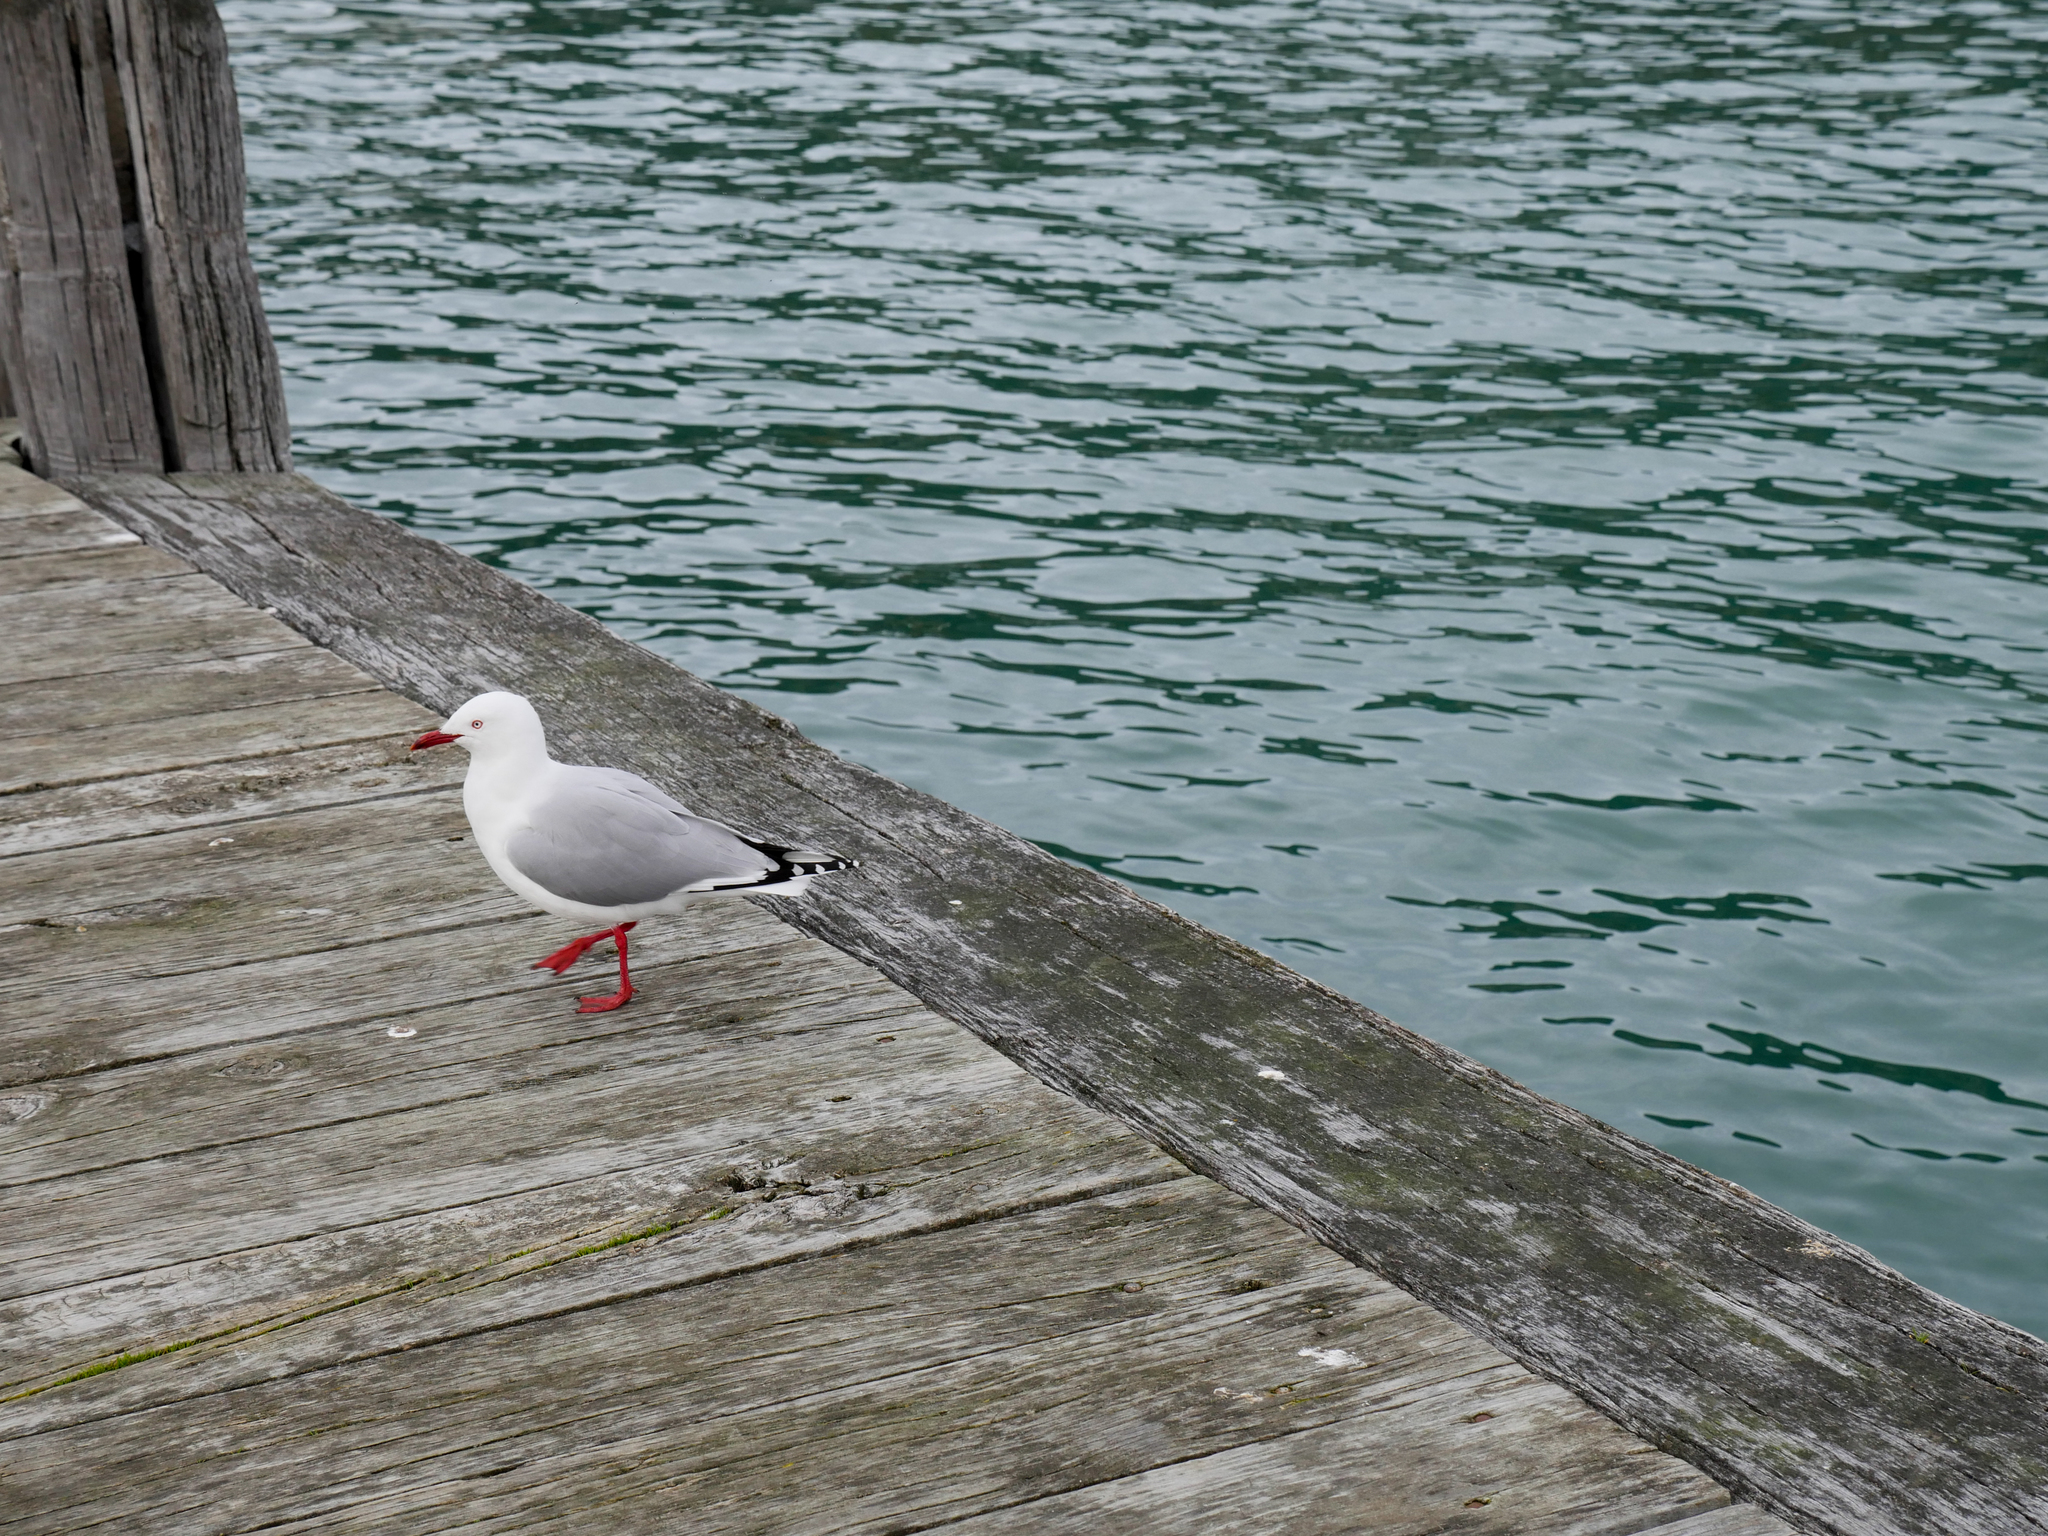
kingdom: Animalia
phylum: Chordata
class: Aves
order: Charadriiformes
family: Laridae
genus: Chroicocephalus
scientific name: Chroicocephalus novaehollandiae
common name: Silver gull
